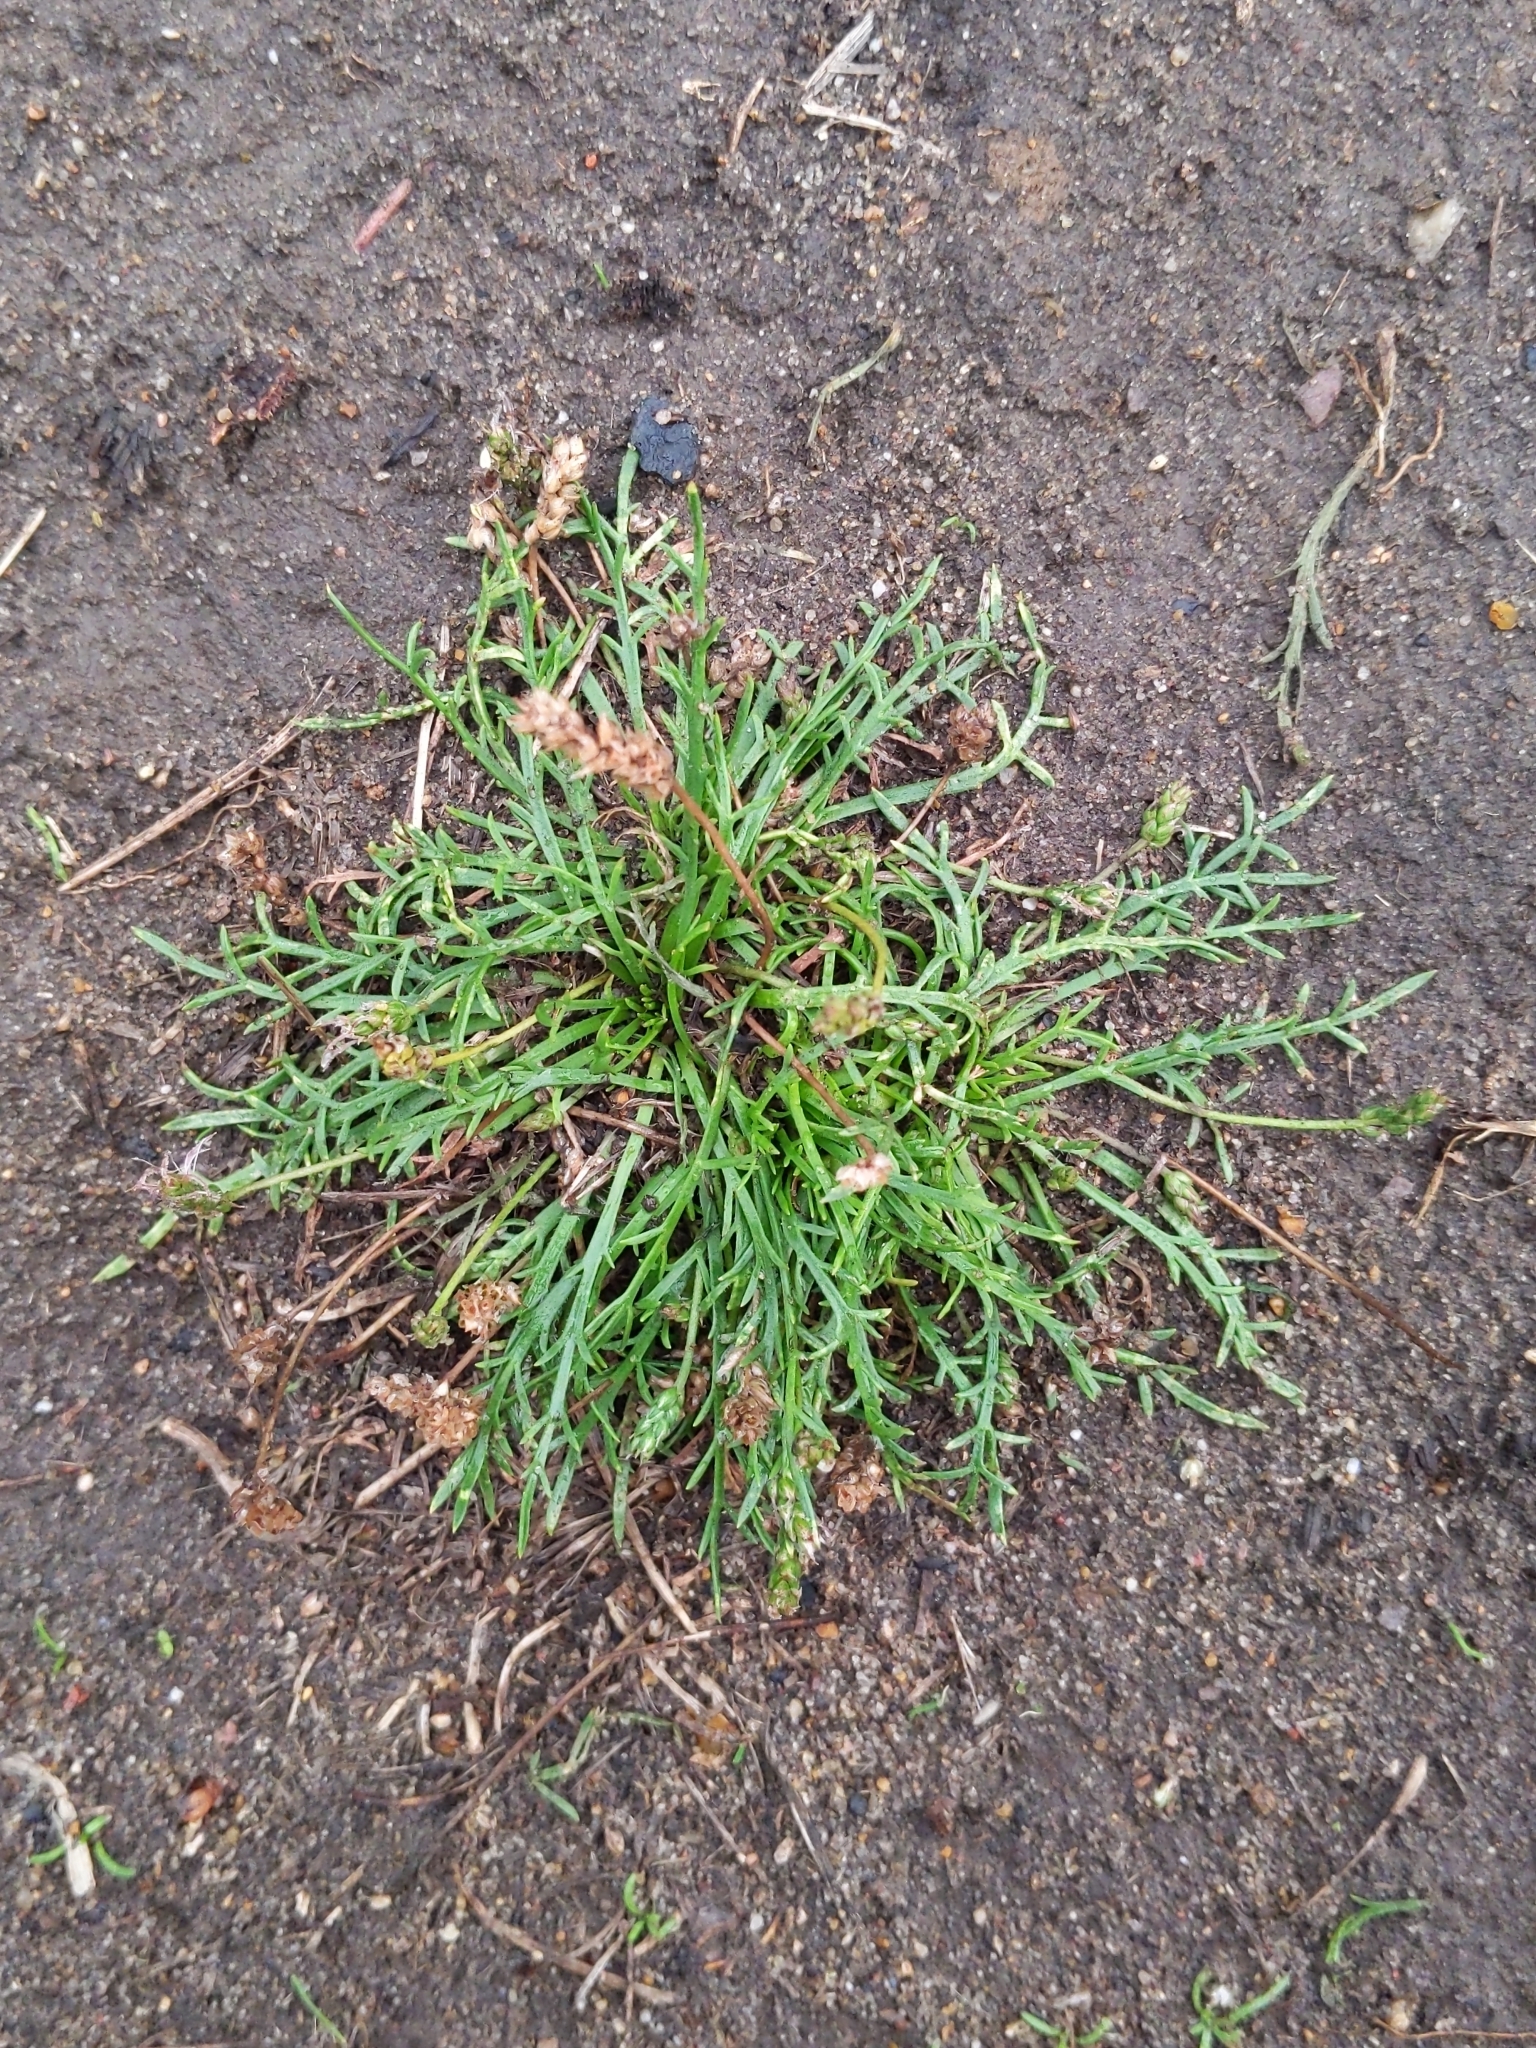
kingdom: Plantae
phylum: Tracheophyta
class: Magnoliopsida
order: Lamiales
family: Plantaginaceae
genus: Plantago
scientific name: Plantago coronopus
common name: Buck's-horn plantain
